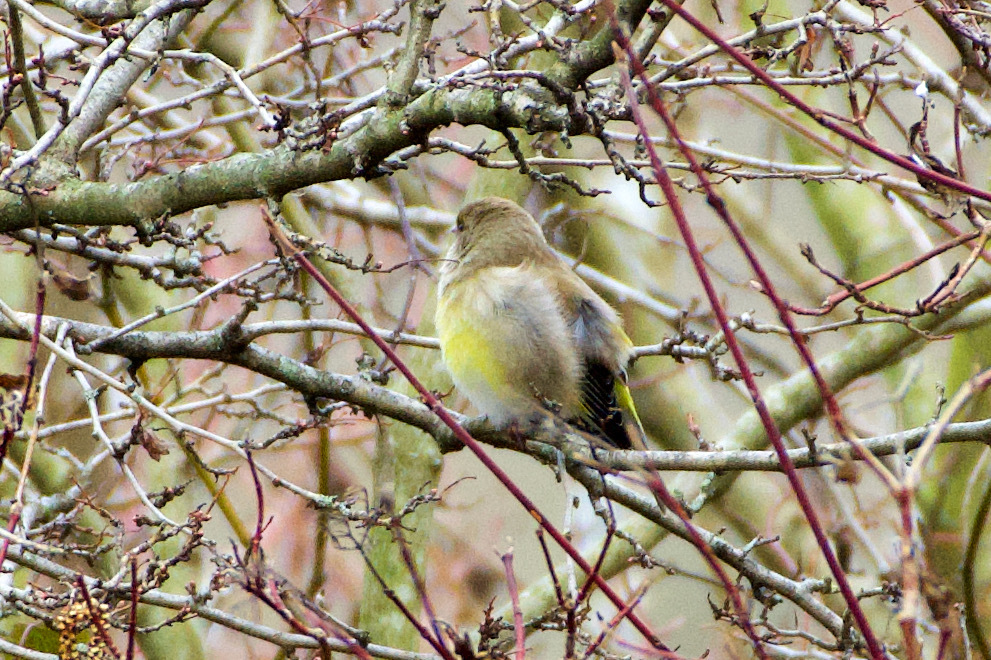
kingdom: Plantae
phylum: Tracheophyta
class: Liliopsida
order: Poales
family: Poaceae
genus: Chloris
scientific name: Chloris chloris
